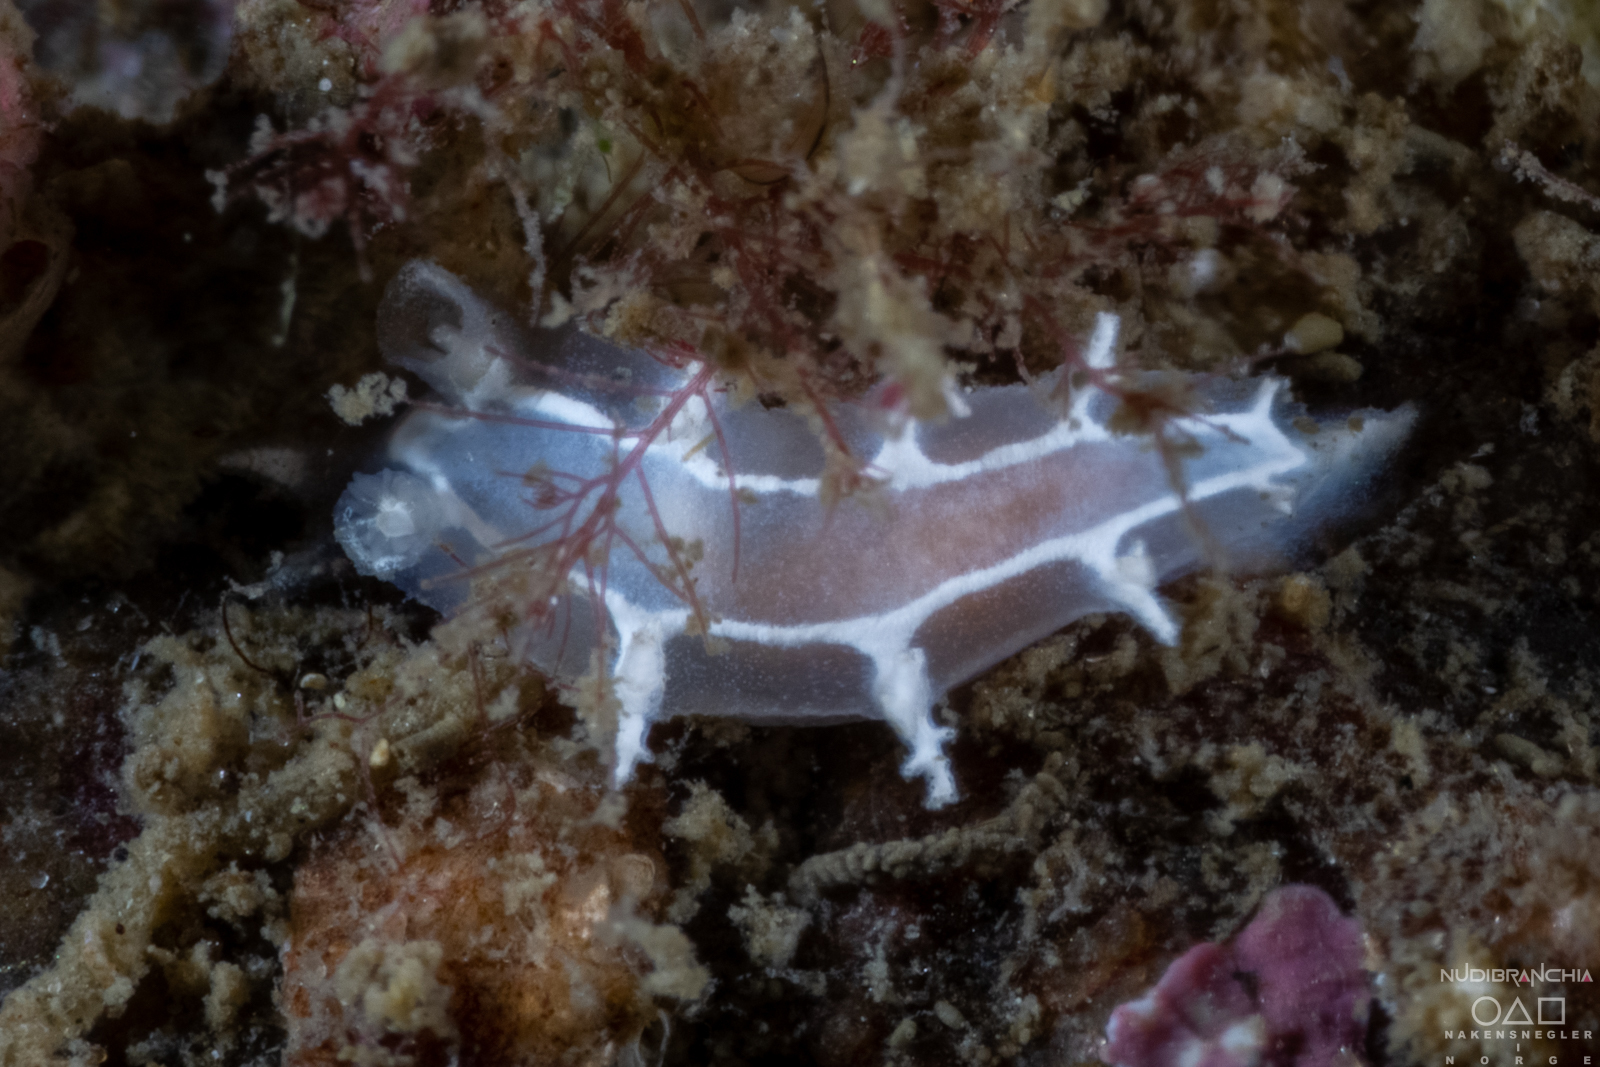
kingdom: Animalia
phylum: Mollusca
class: Gastropoda
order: Nudibranchia
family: Tritoniidae
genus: Duvaucelia
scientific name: Duvaucelia lineata
